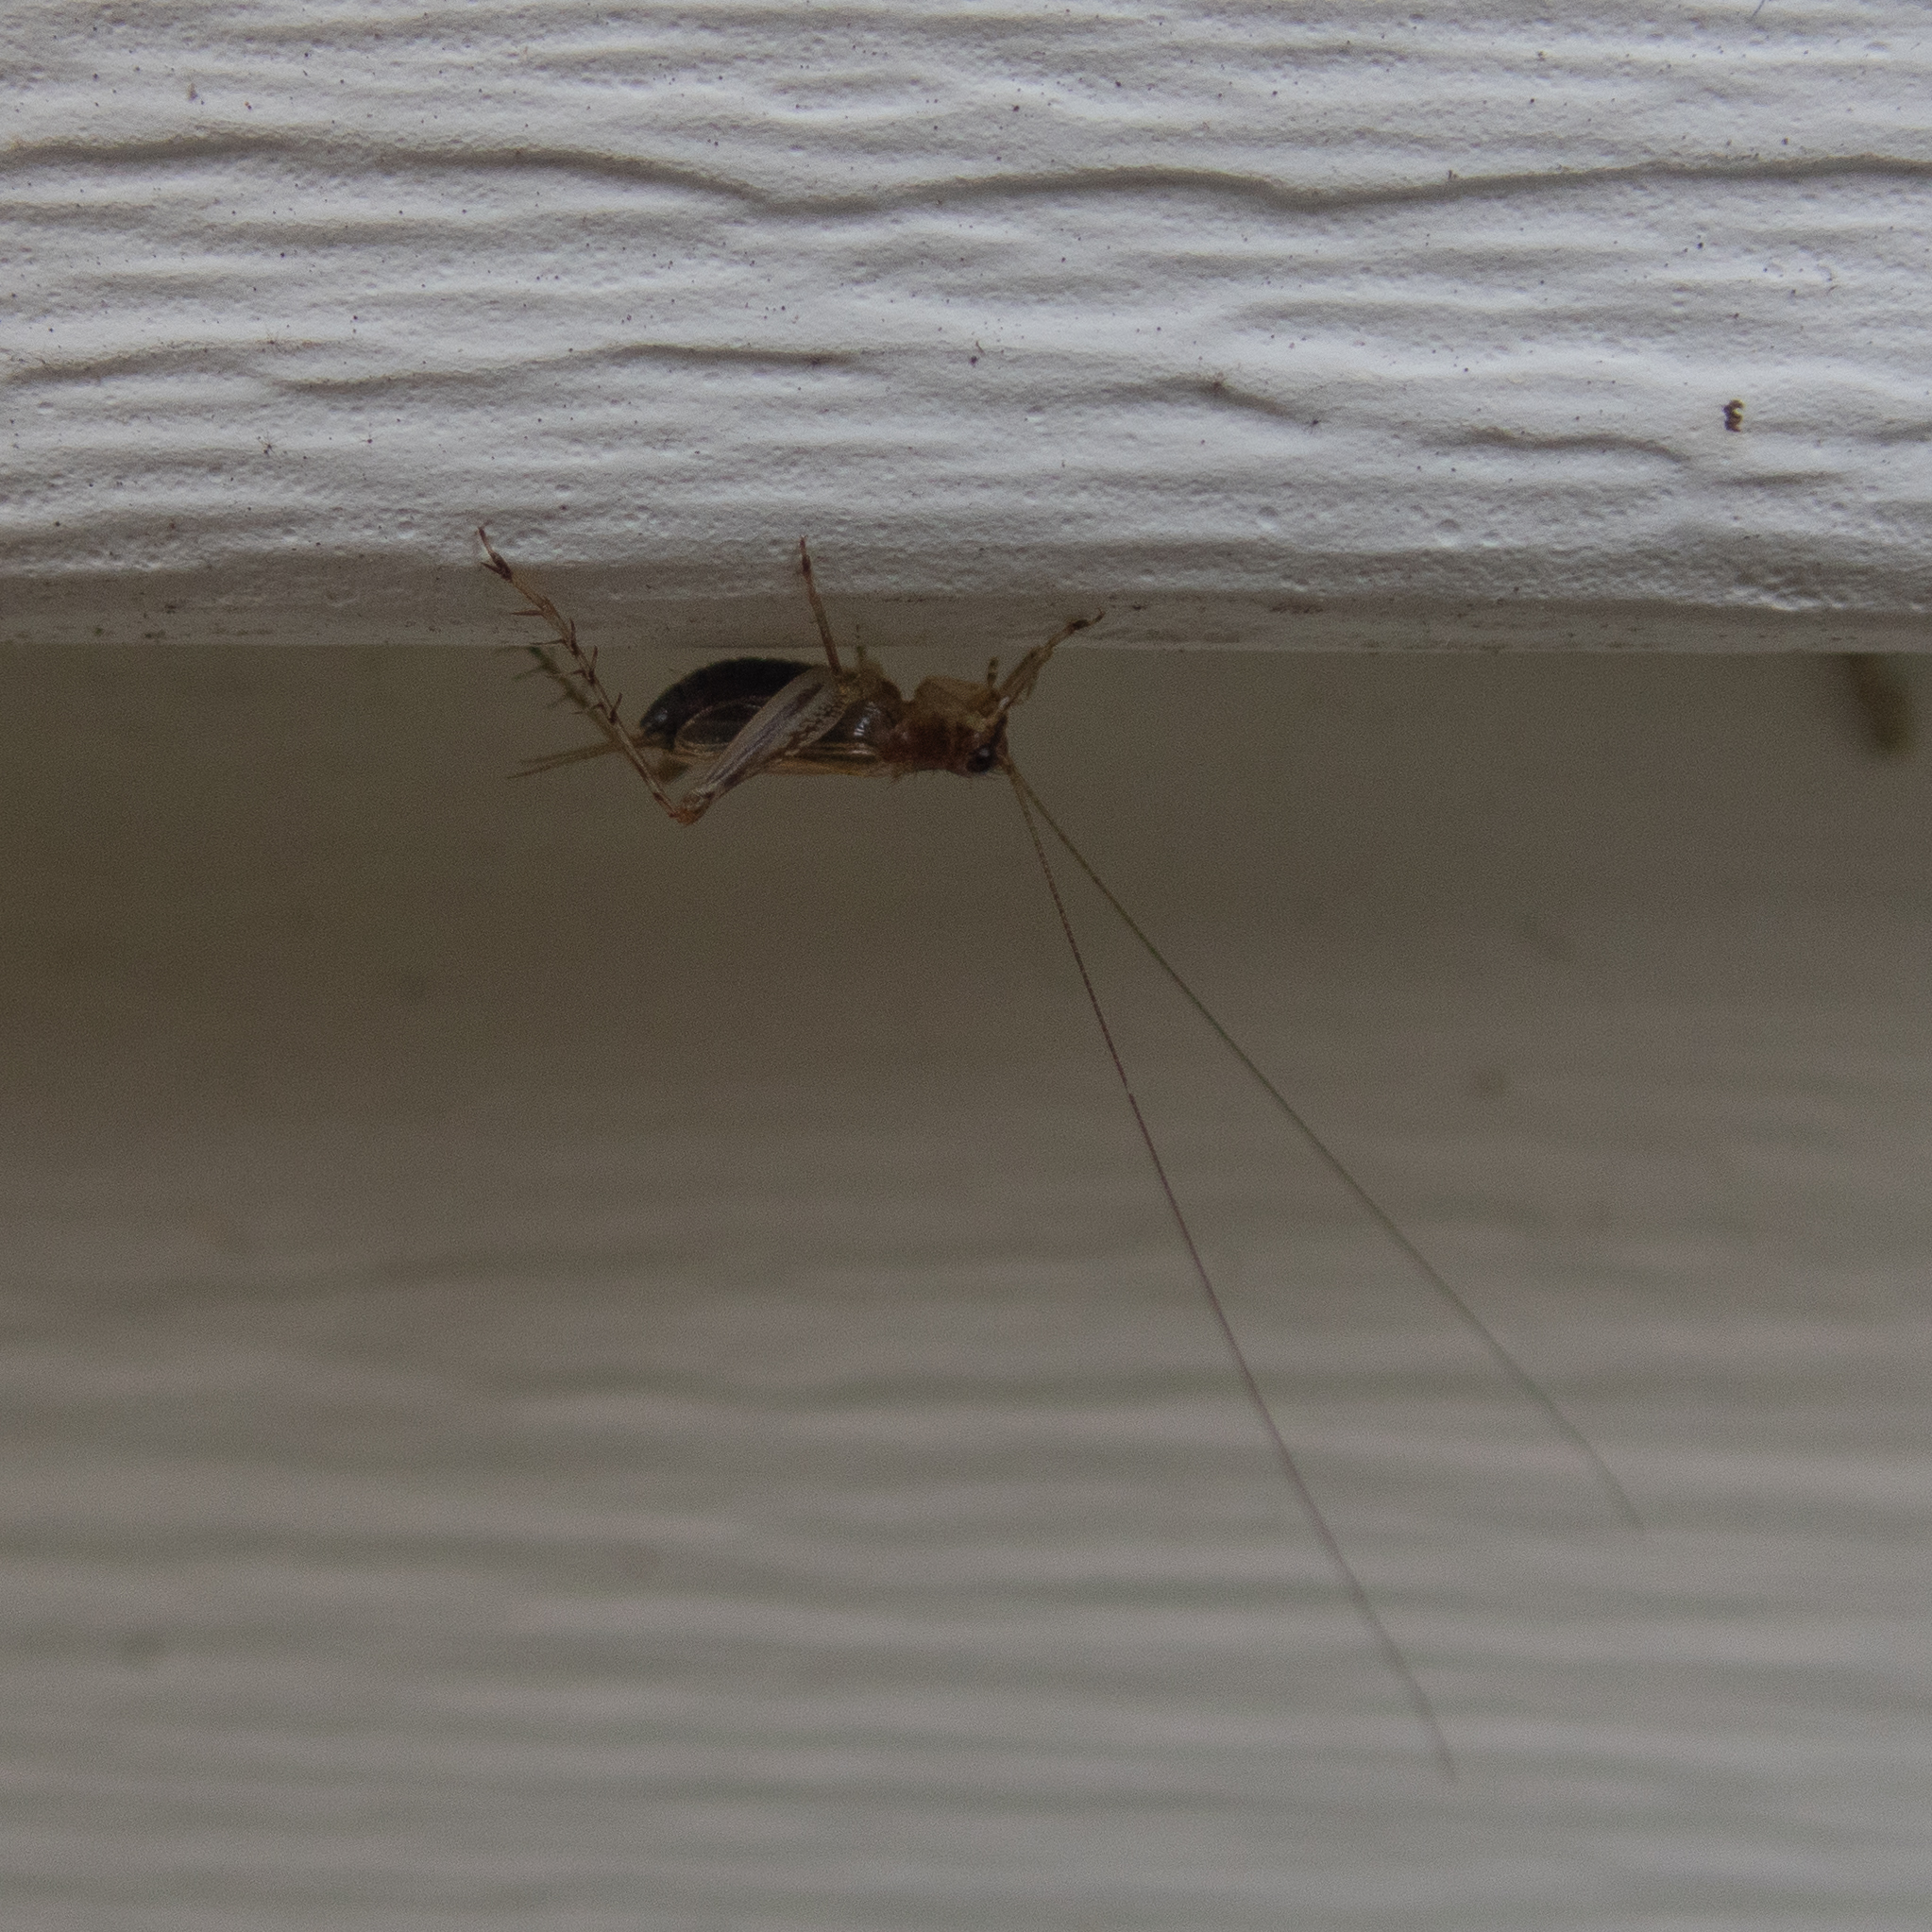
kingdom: Animalia
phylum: Arthropoda
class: Insecta
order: Orthoptera
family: Trigonidiidae
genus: Anaxipha
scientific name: Anaxipha exigua
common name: Say's bush cricket
